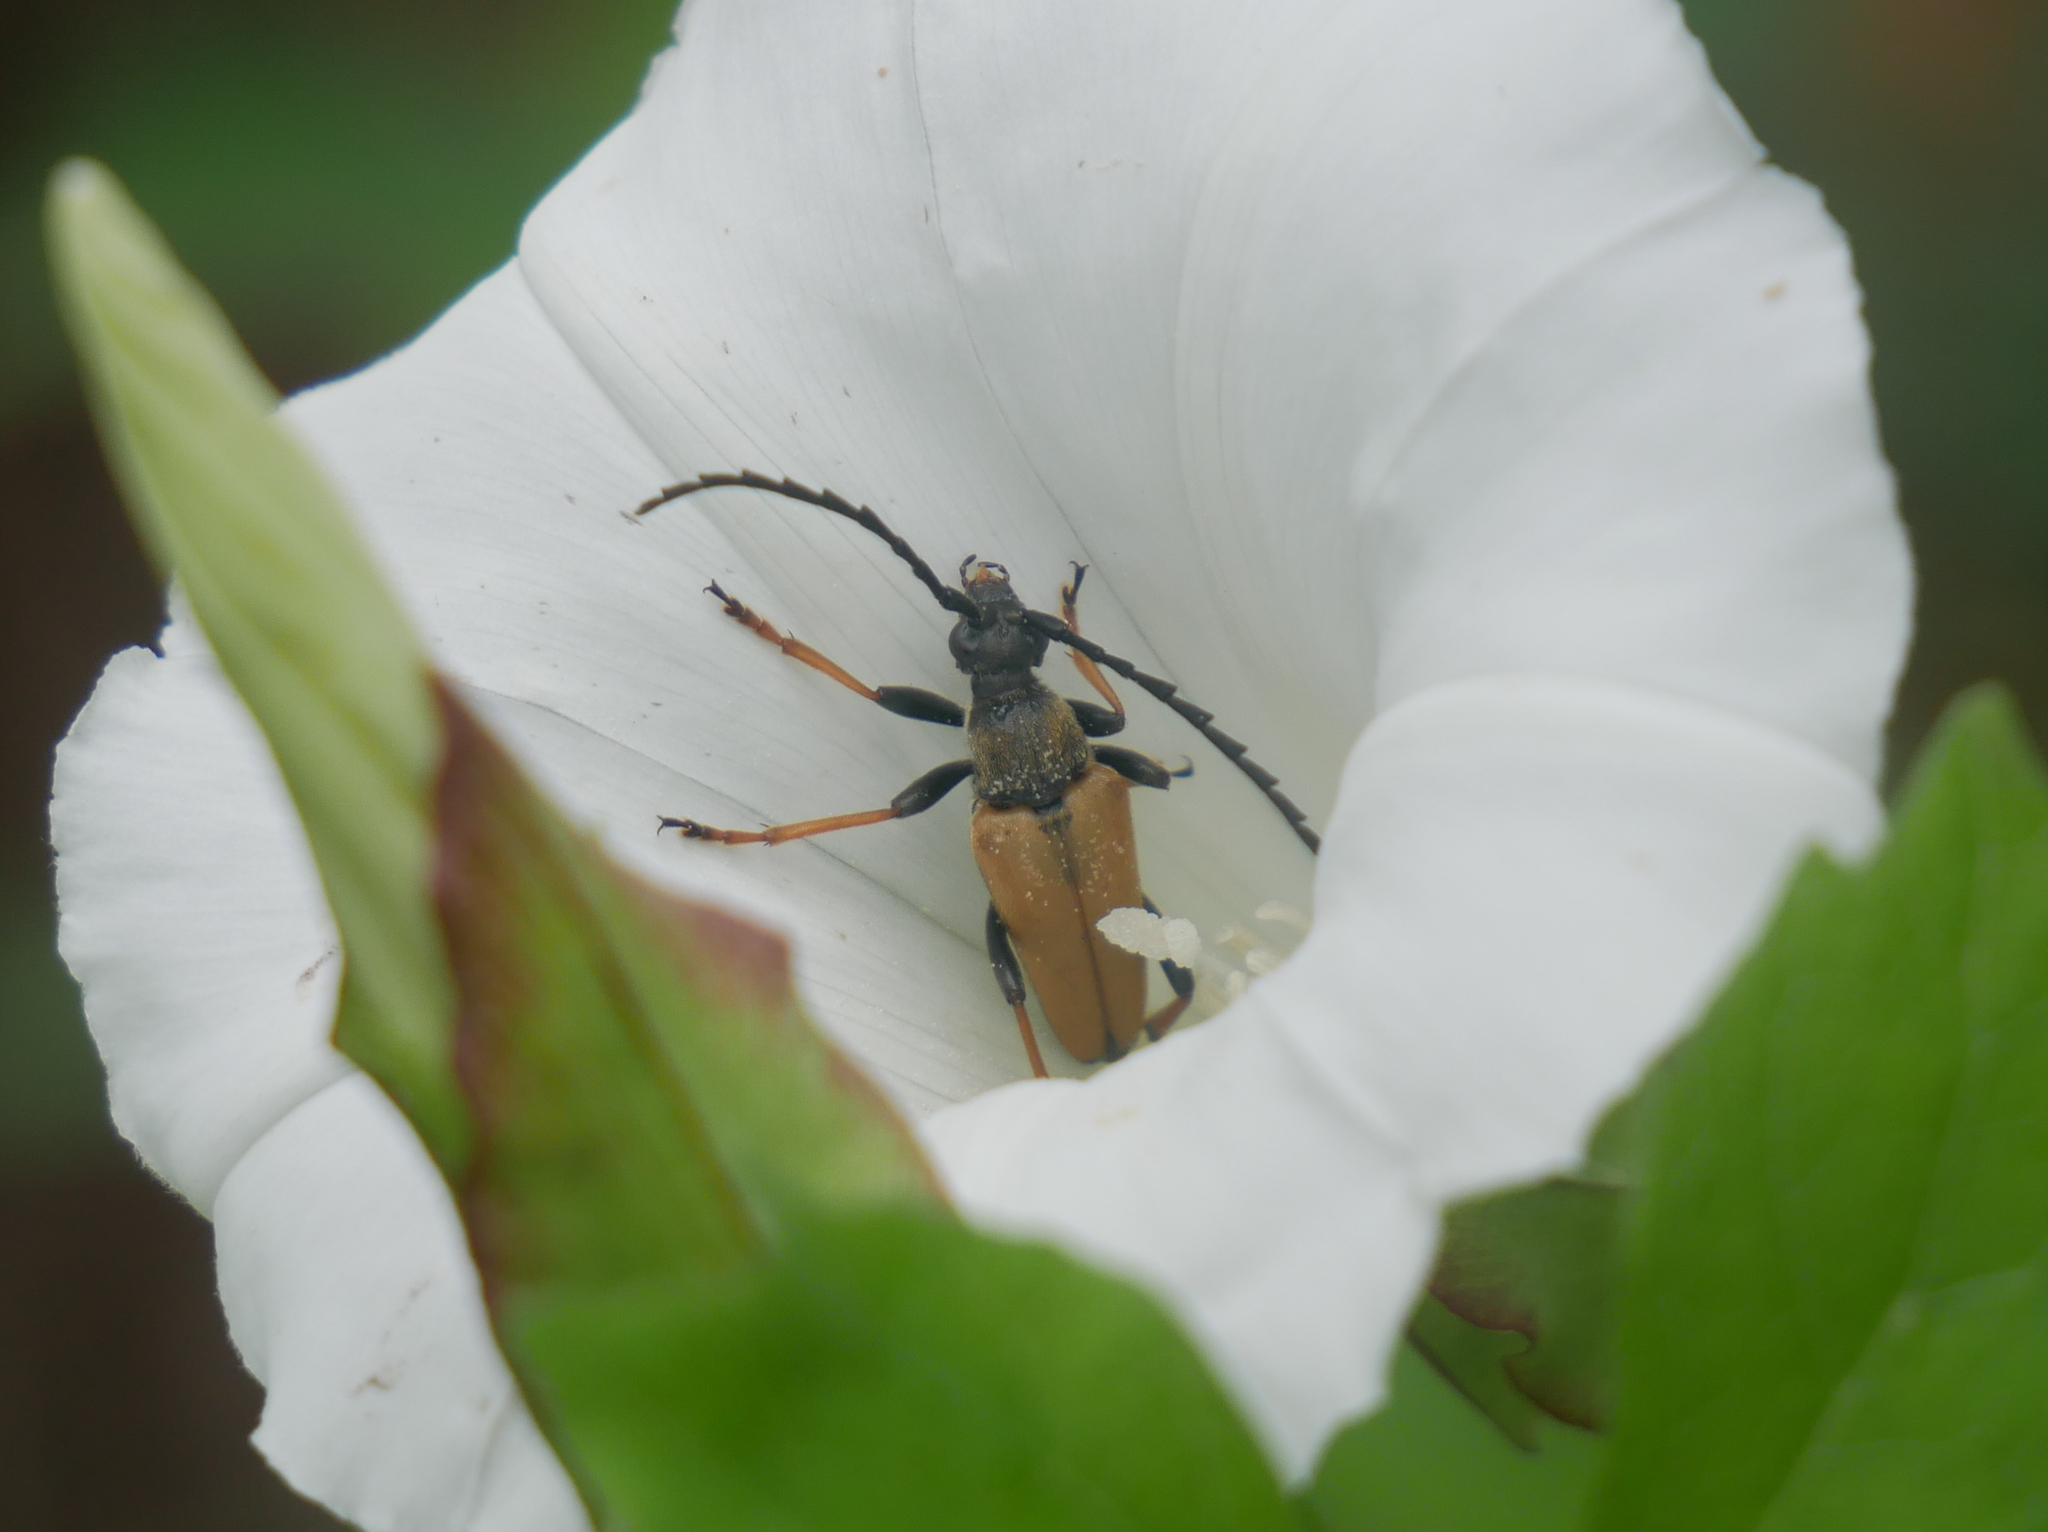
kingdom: Animalia
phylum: Arthropoda
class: Insecta
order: Coleoptera
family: Cerambycidae
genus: Stictoleptura
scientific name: Stictoleptura rubra
